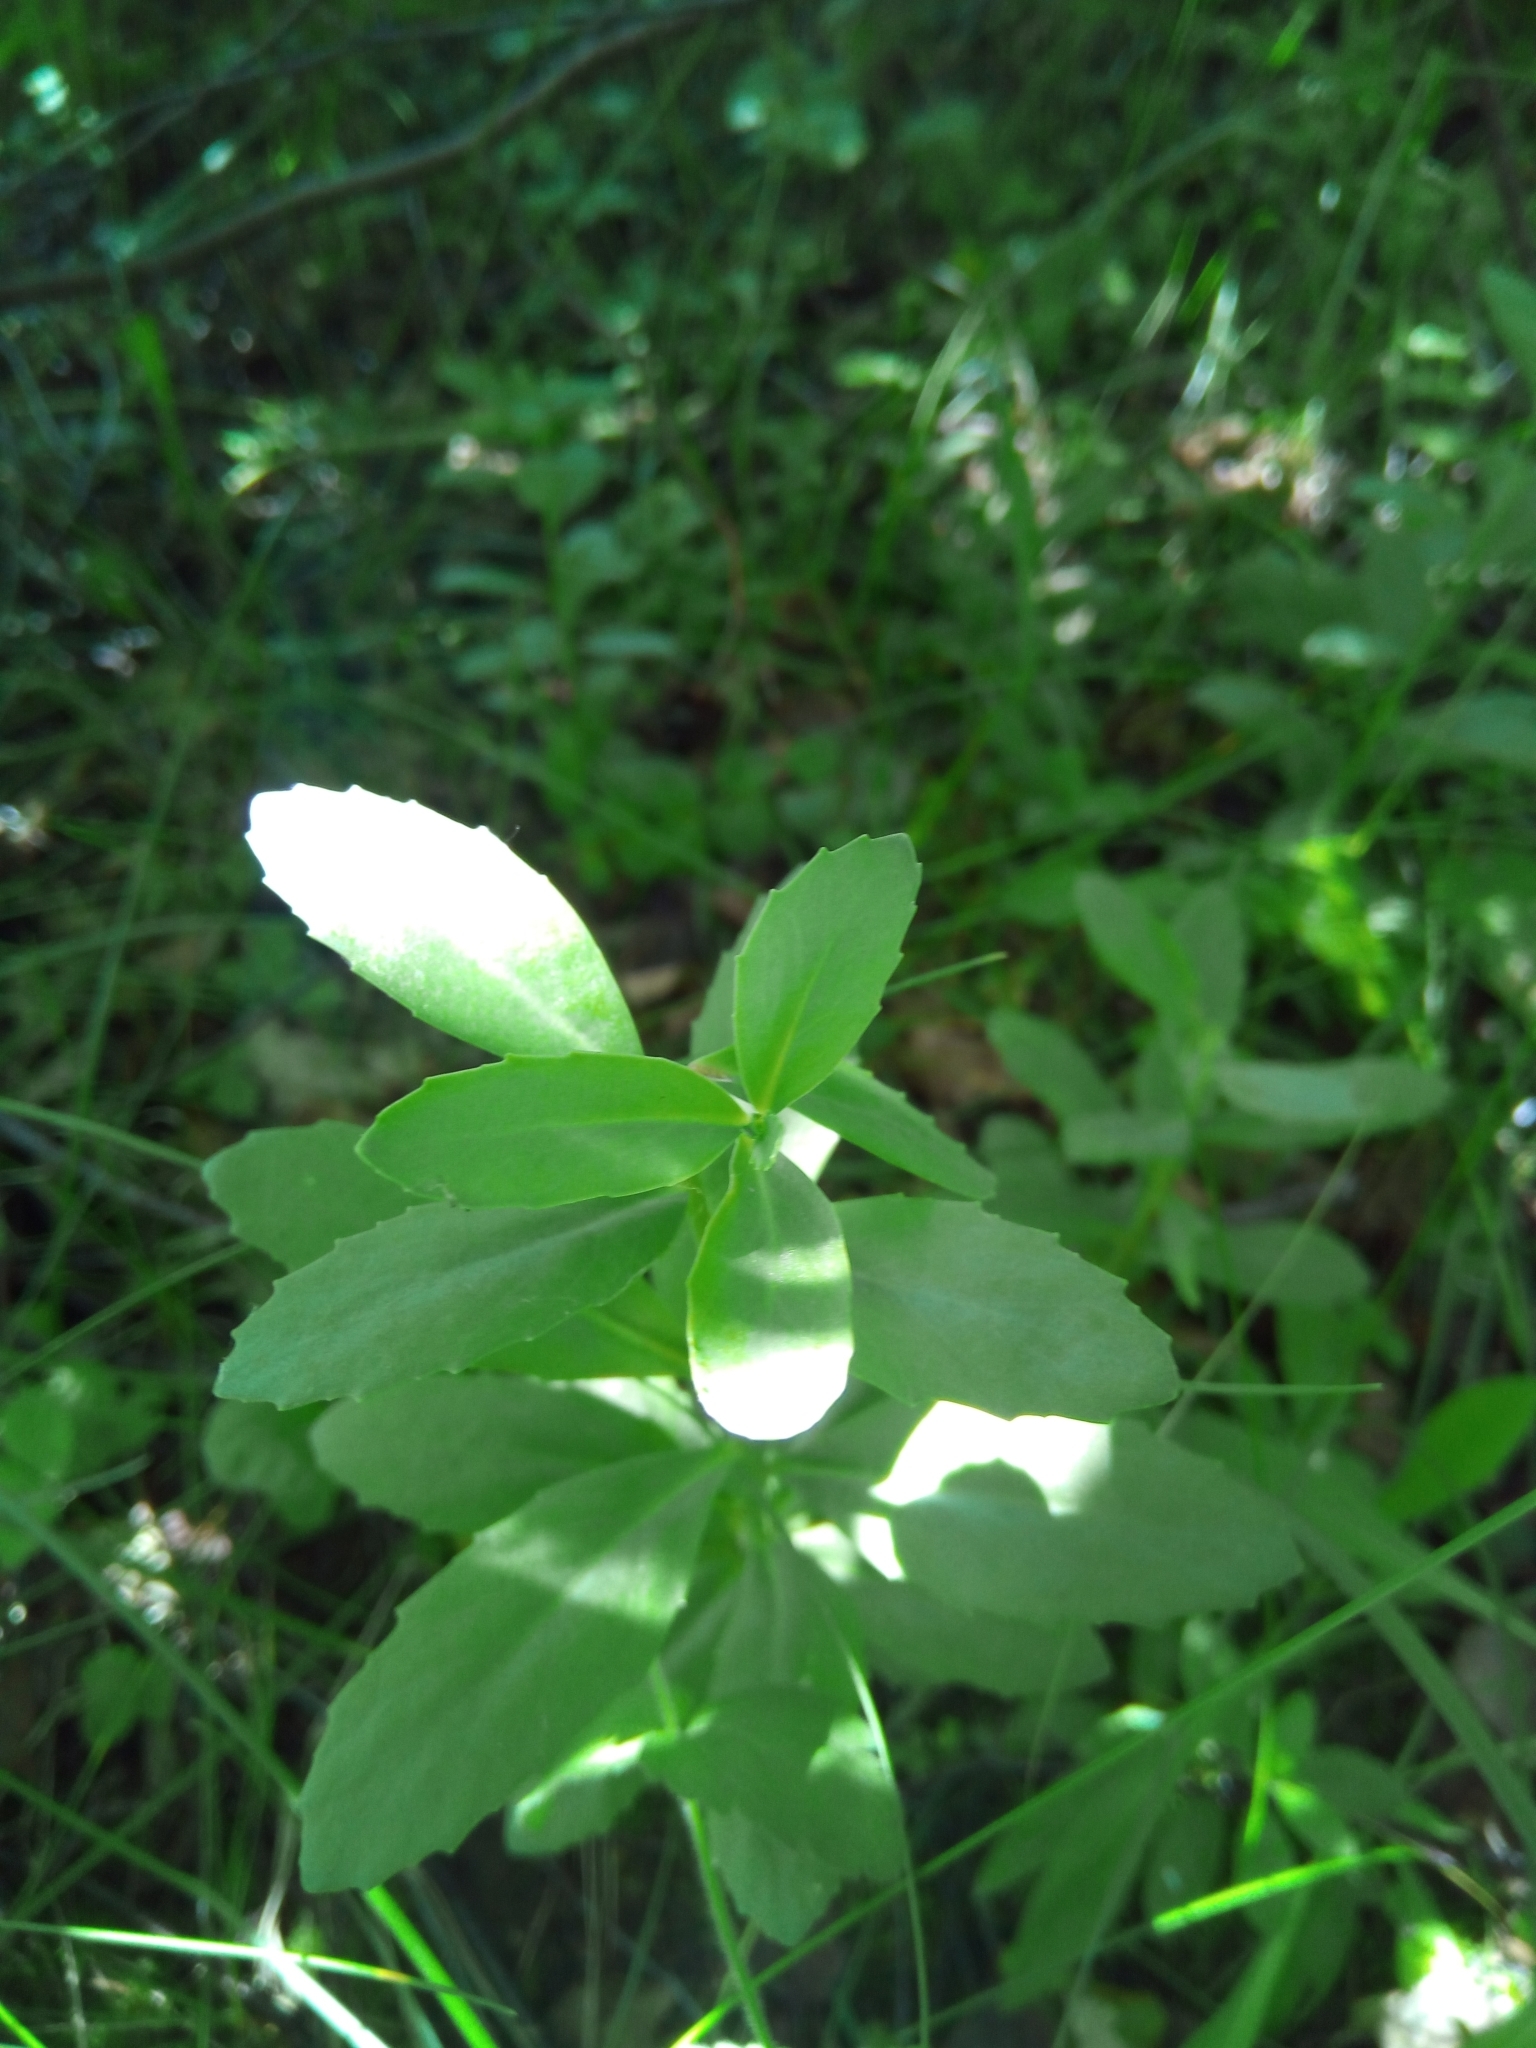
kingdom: Plantae
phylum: Tracheophyta
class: Magnoliopsida
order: Saxifragales
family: Crassulaceae
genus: Hylotelephium
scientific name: Hylotelephium telephium
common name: Live-forever
